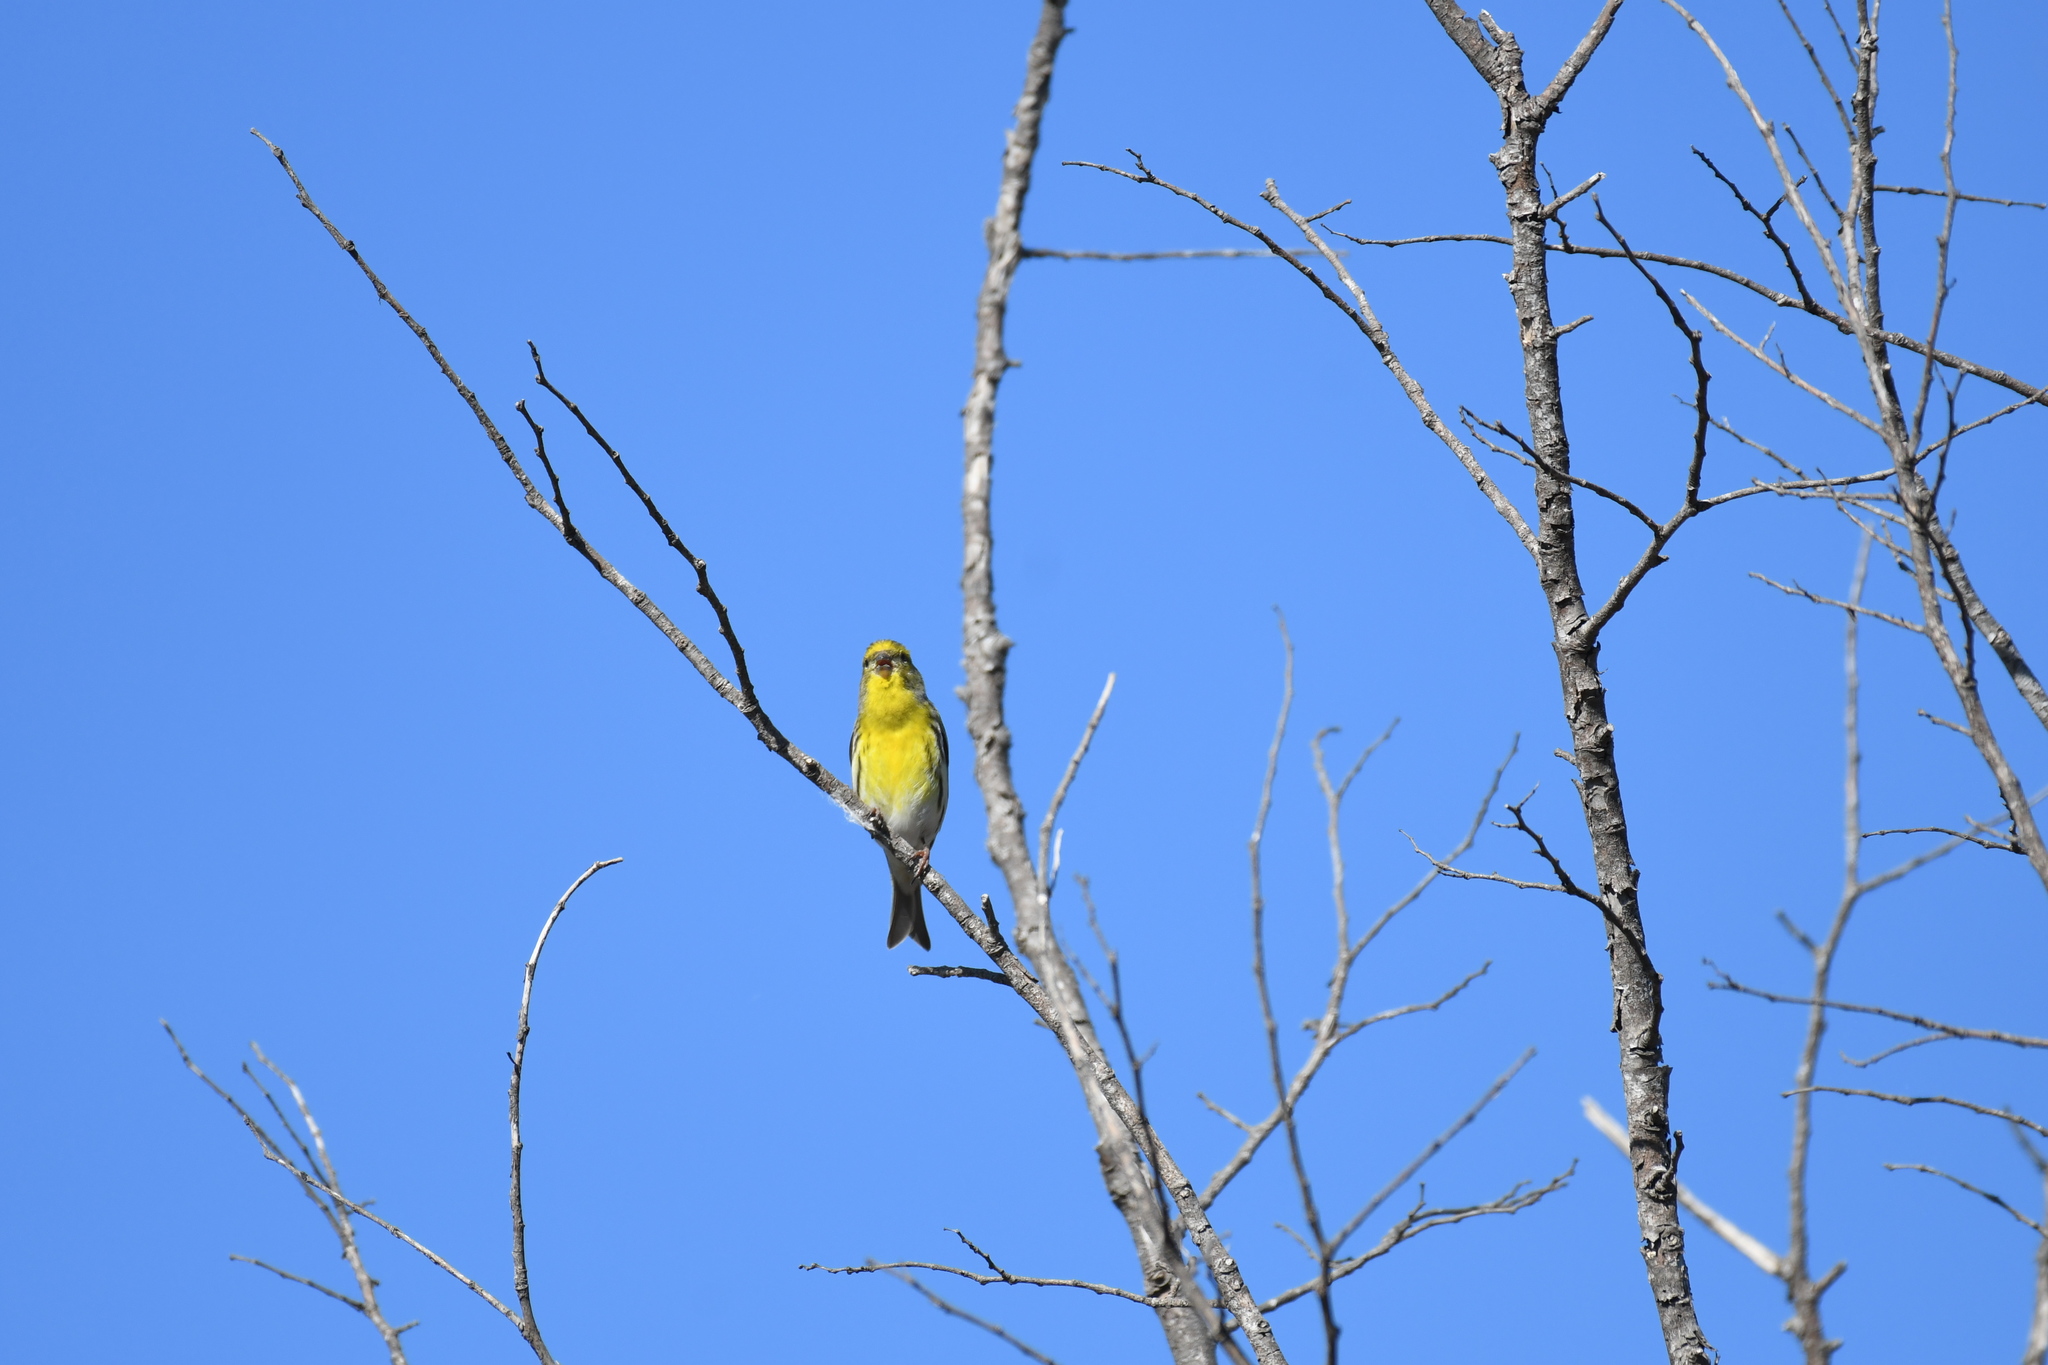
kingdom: Animalia
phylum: Chordata
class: Aves
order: Passeriformes
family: Fringillidae
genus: Serinus
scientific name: Serinus serinus
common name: European serin
